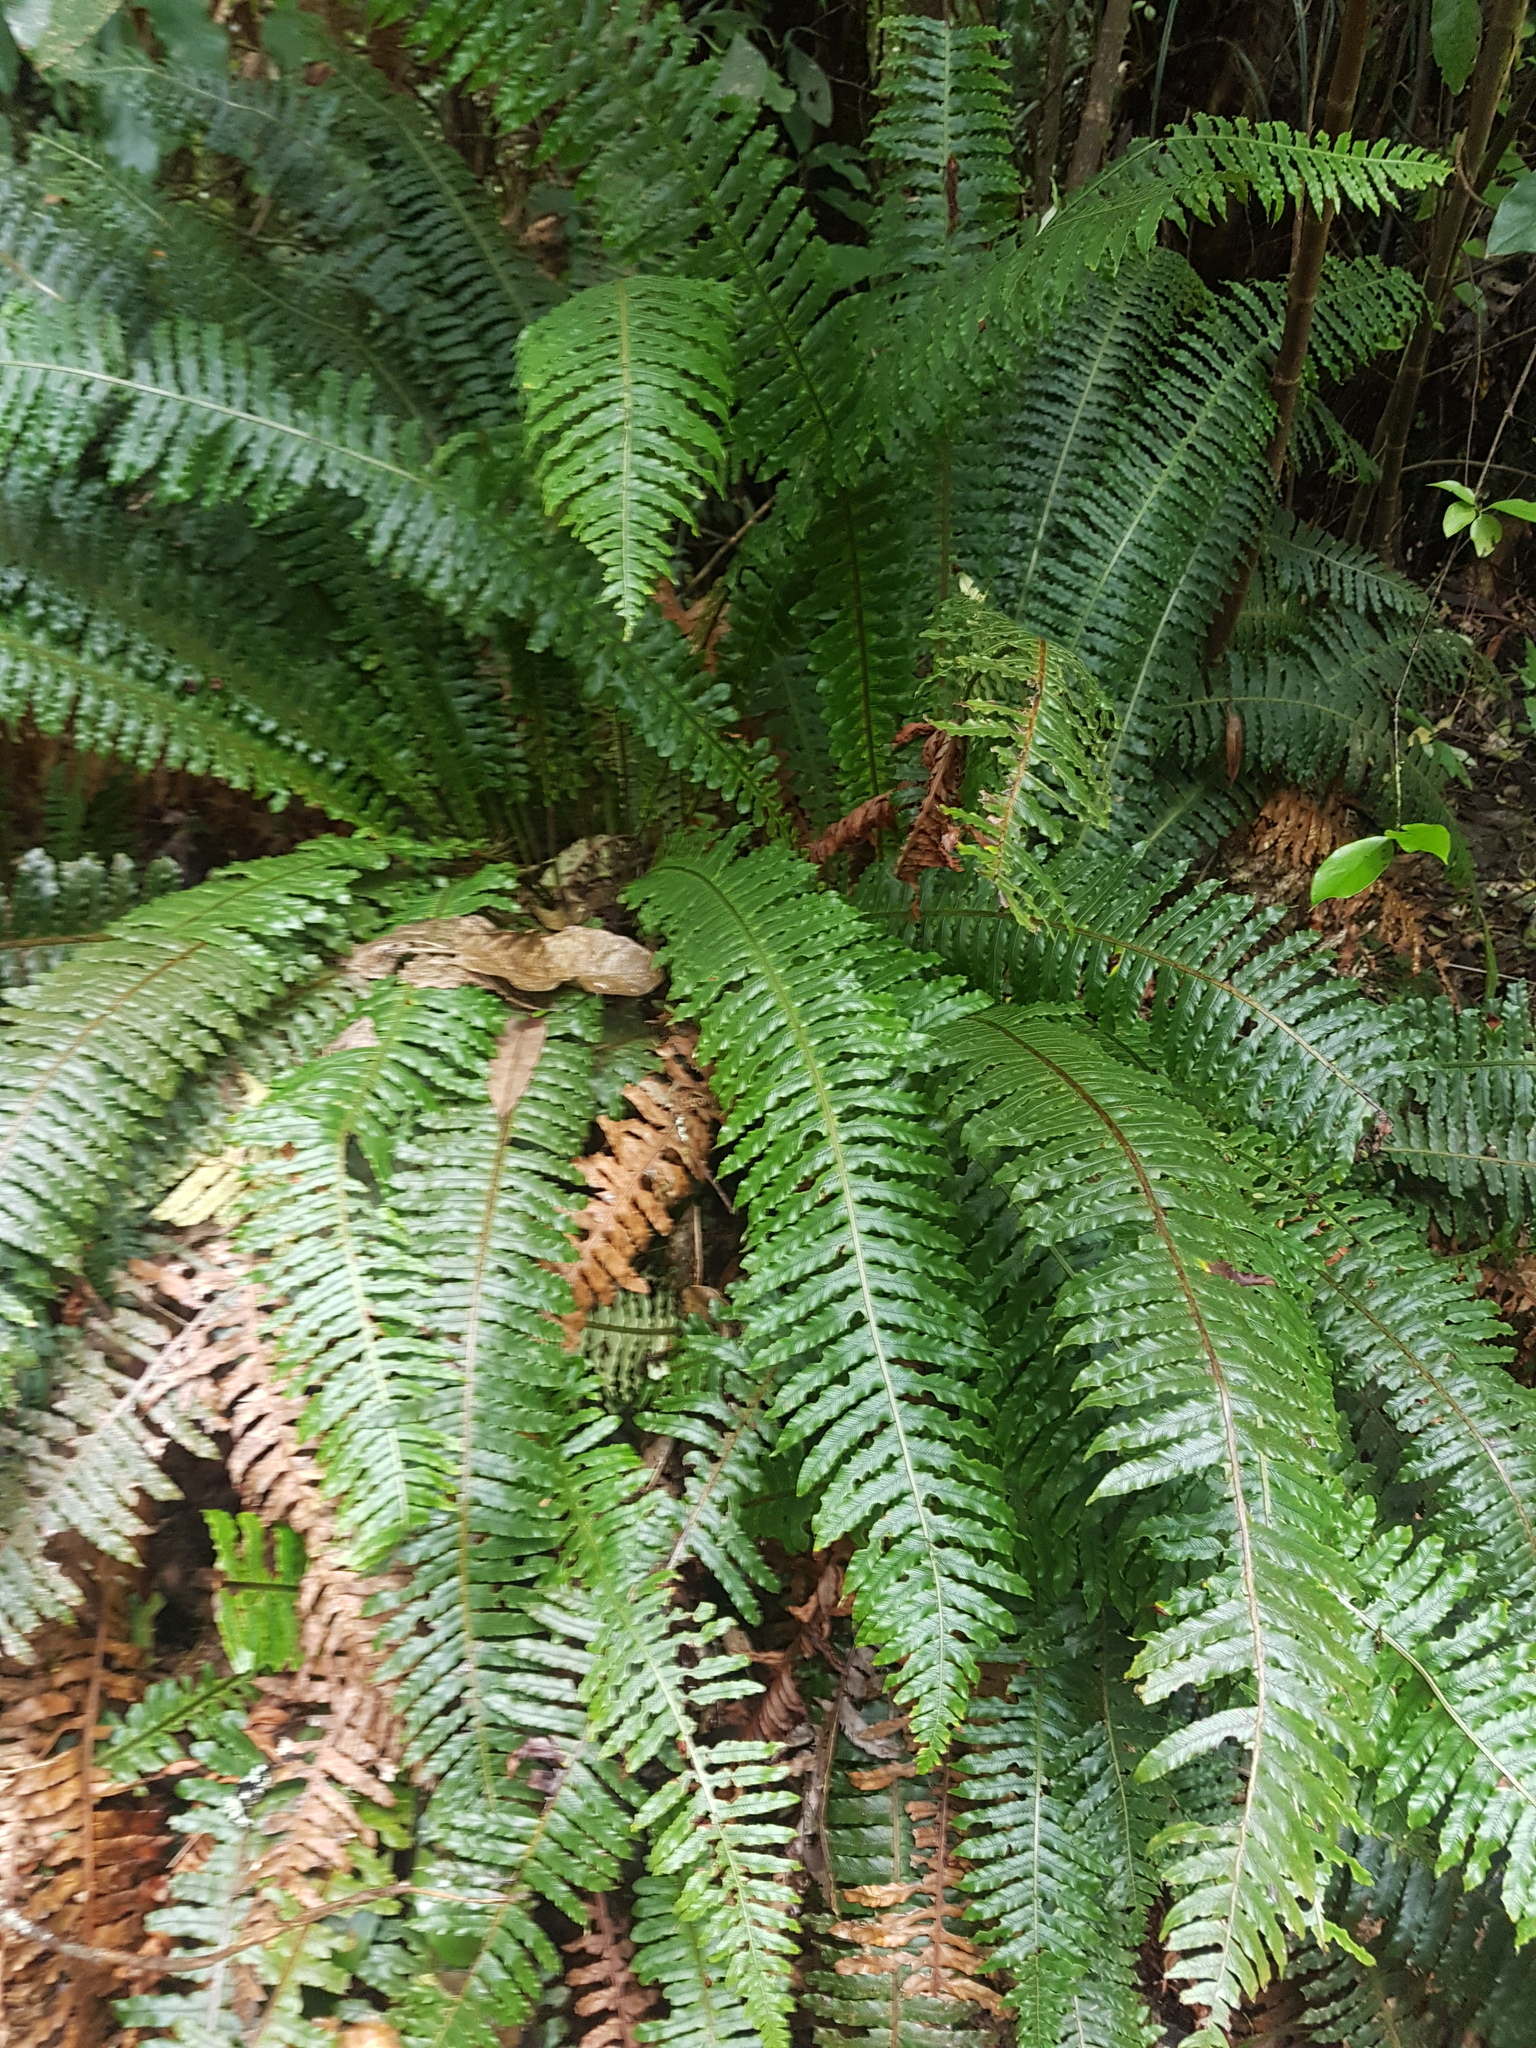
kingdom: Plantae
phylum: Tracheophyta
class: Polypodiopsida
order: Polypodiales
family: Blechnaceae
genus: Lomaria
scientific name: Lomaria discolor
